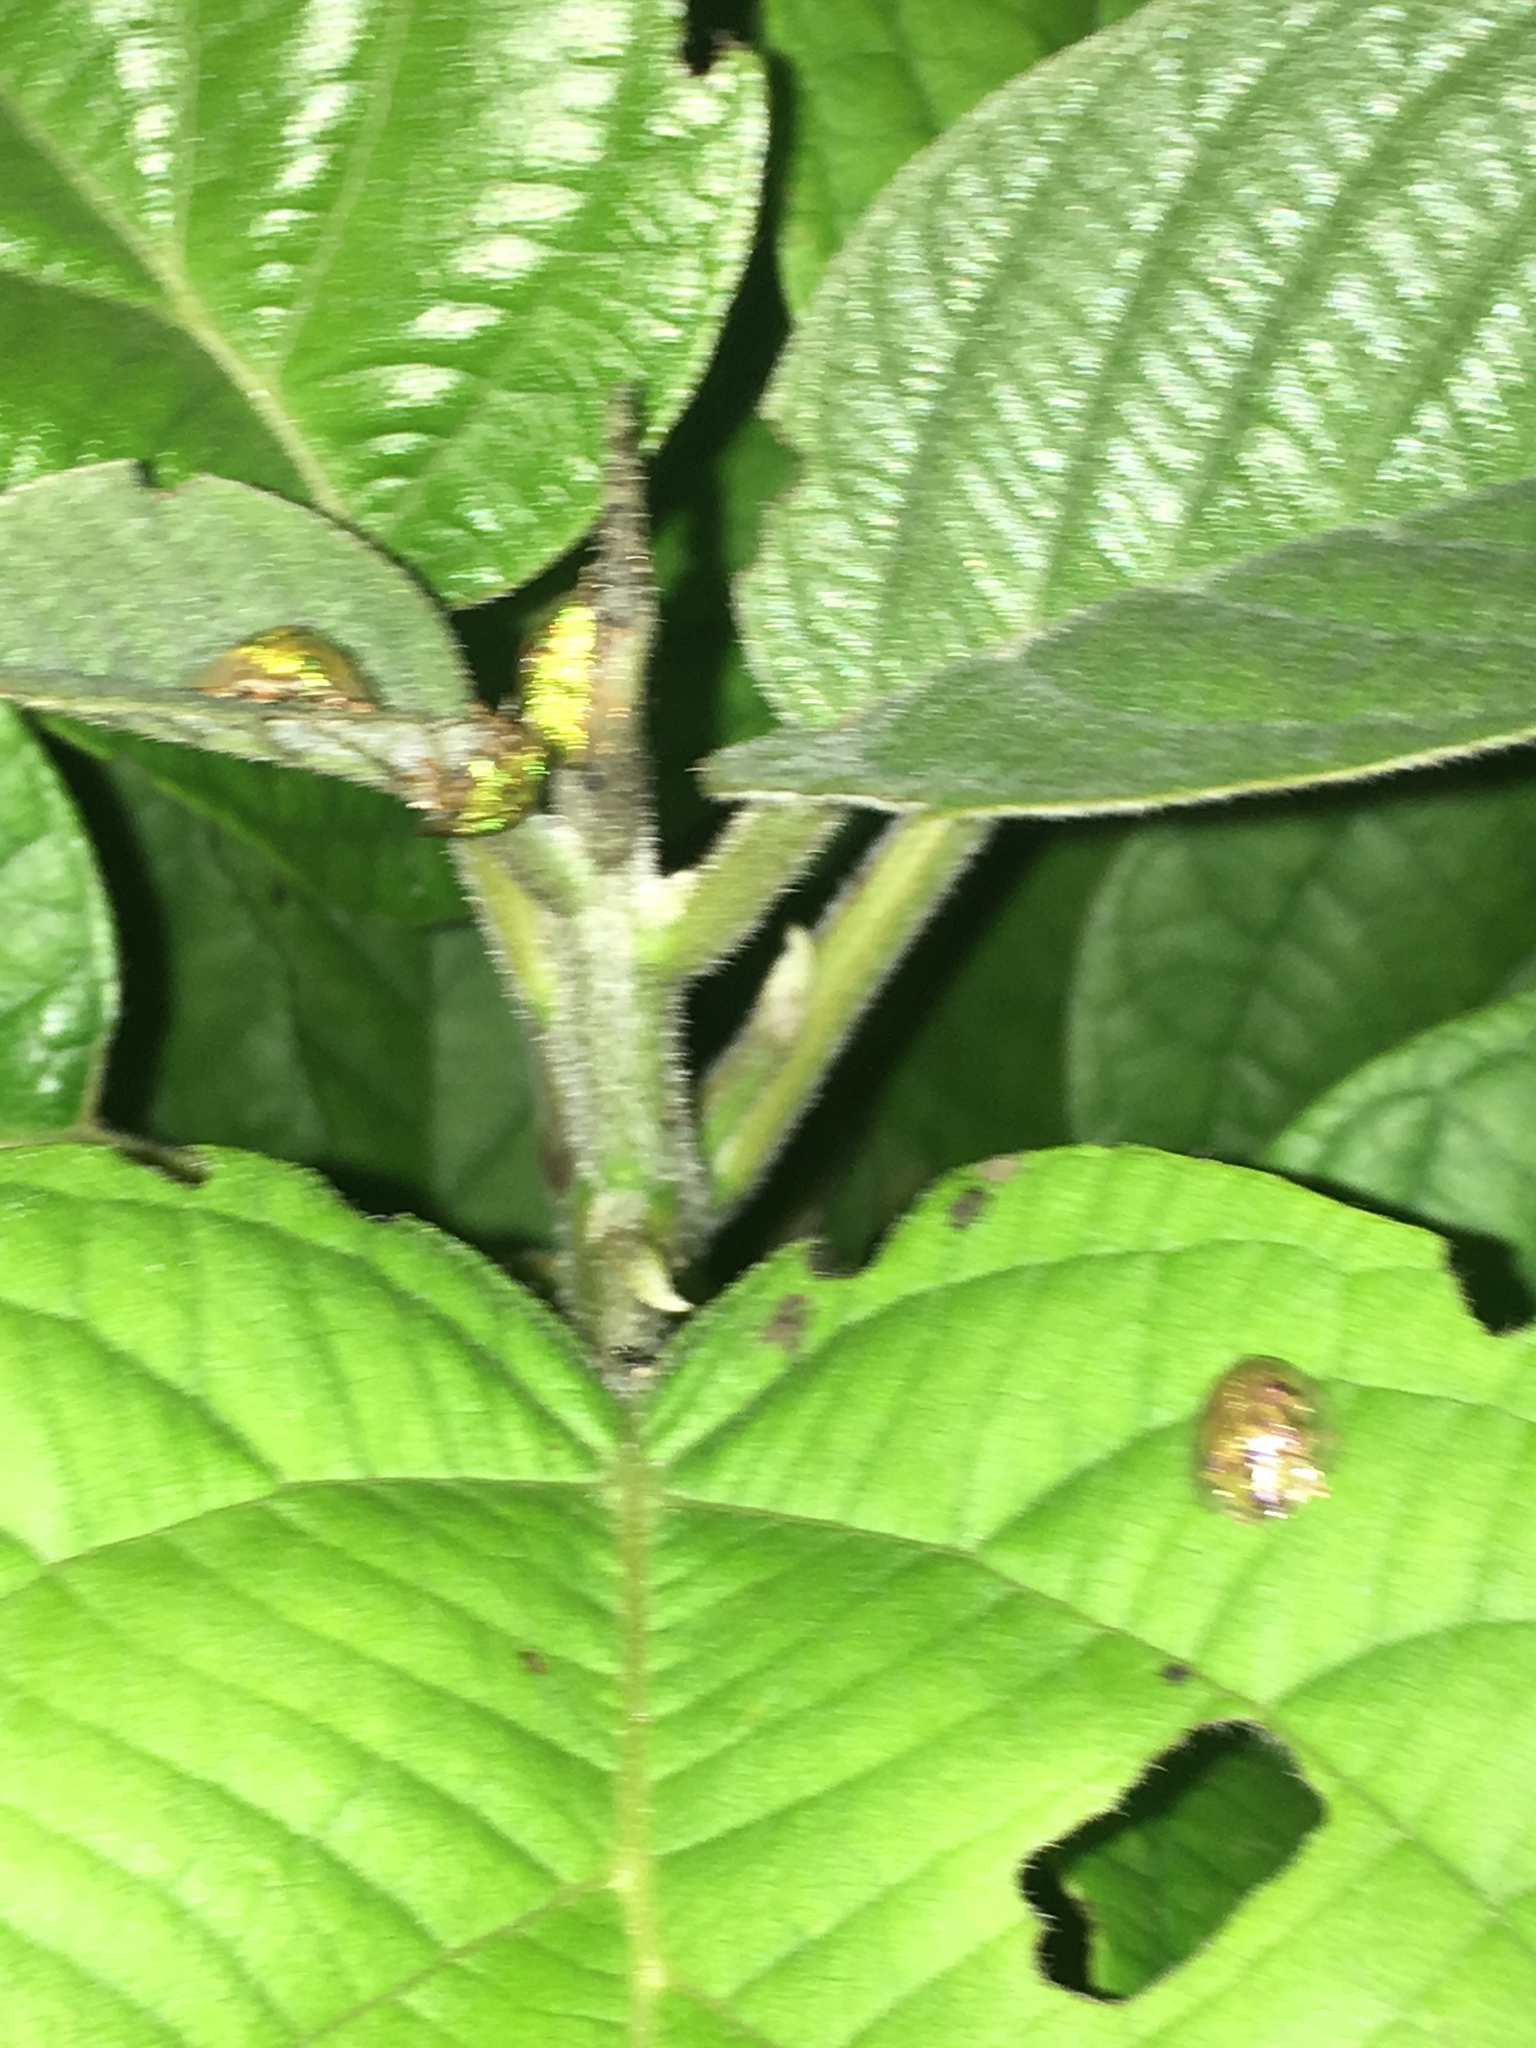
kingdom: Animalia
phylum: Arthropoda
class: Insecta
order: Coleoptera
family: Chrysomelidae
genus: Eurypepla
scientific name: Eurypepla calochroma
